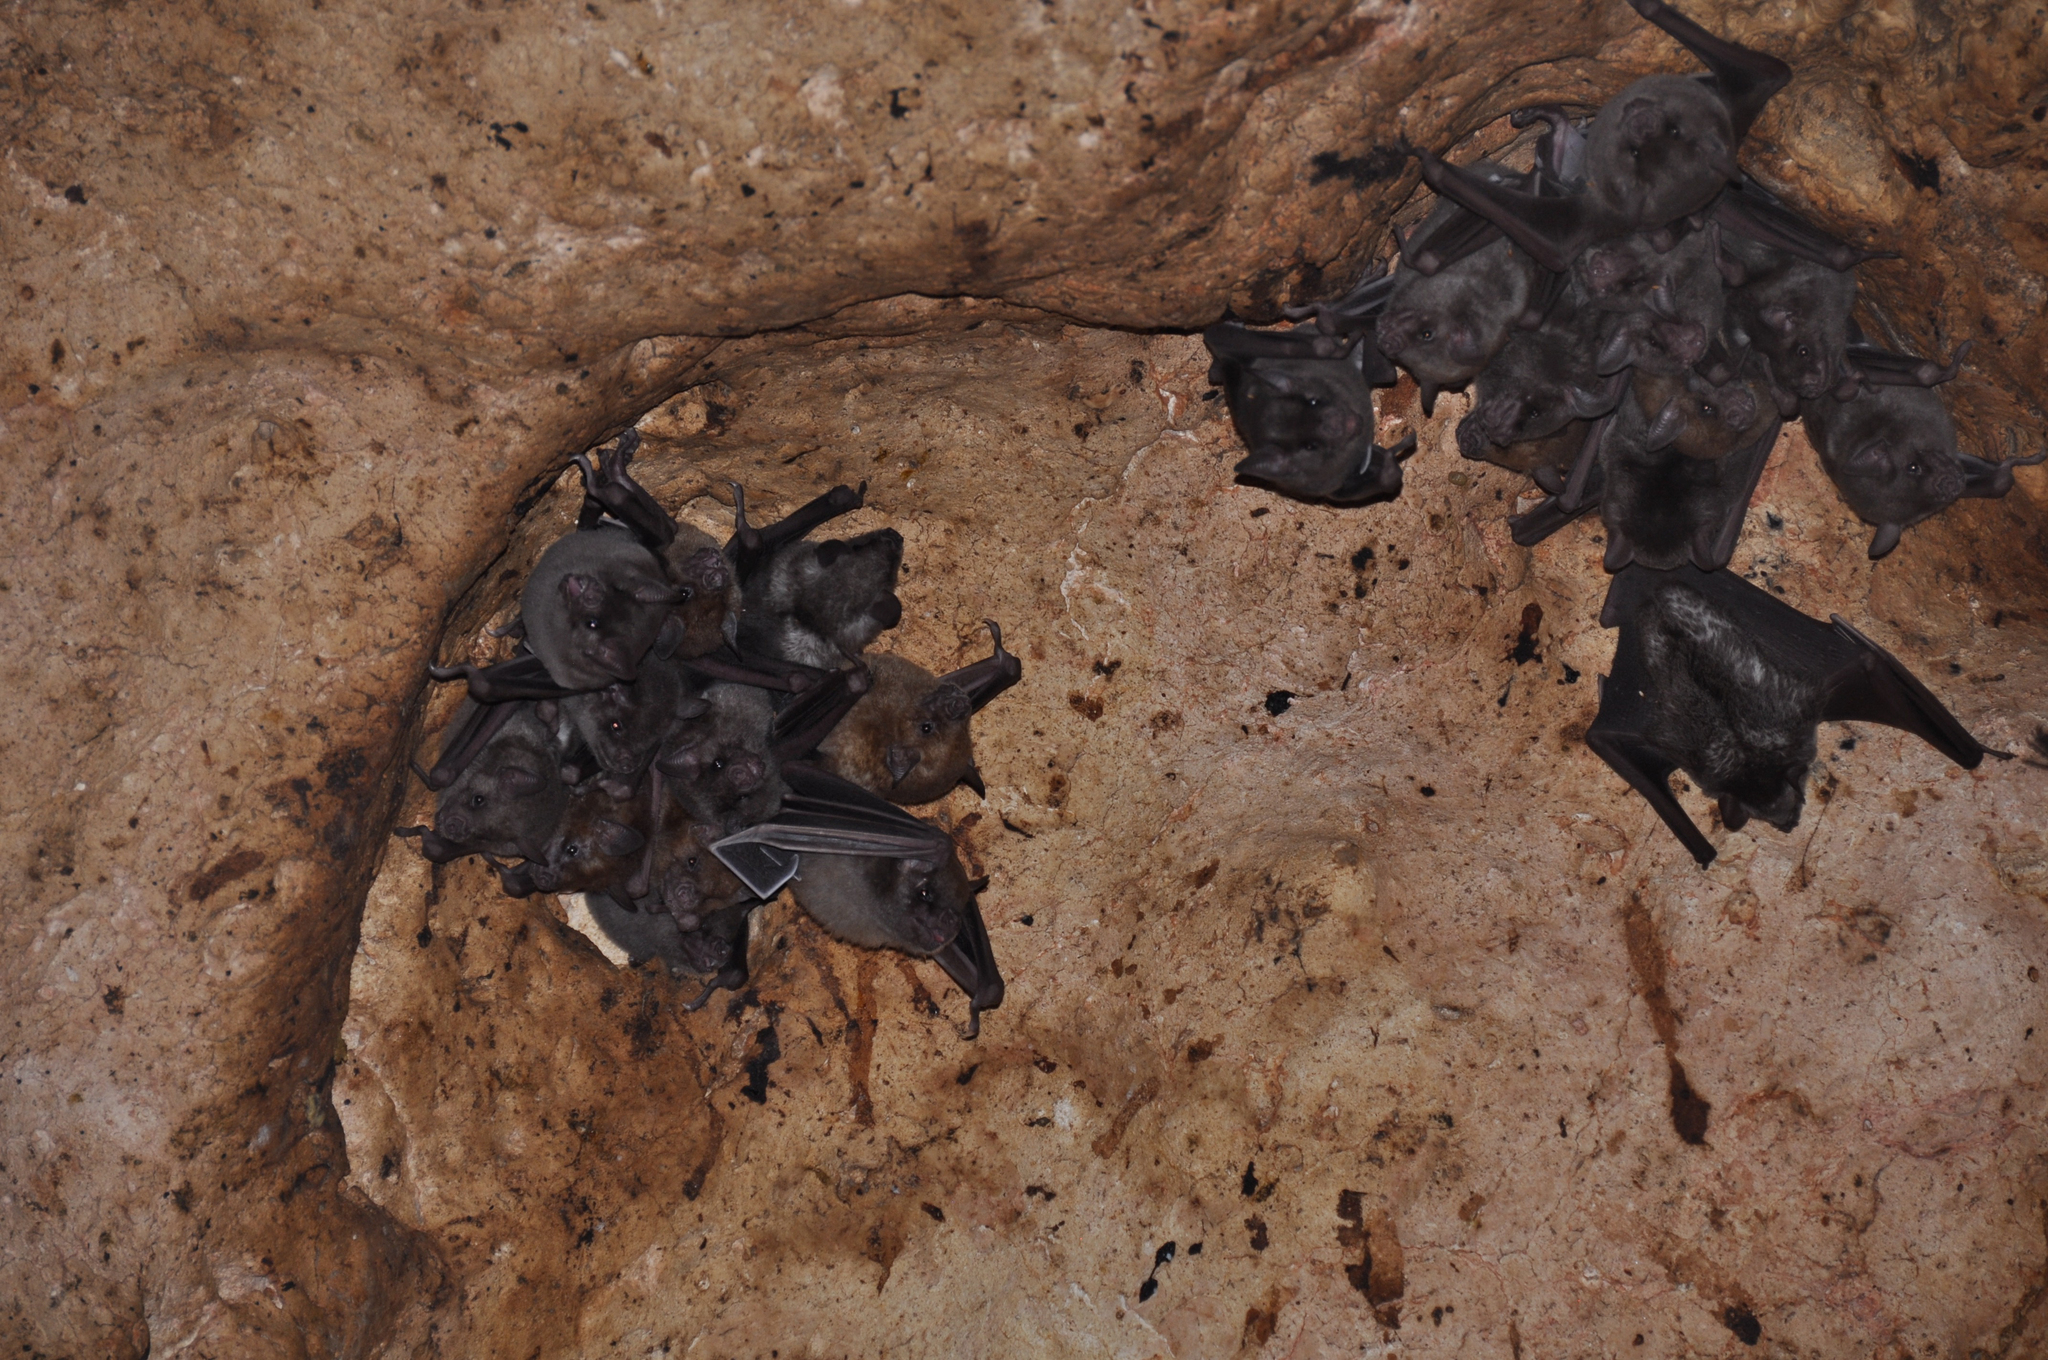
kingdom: Animalia
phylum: Chordata
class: Mammalia
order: Chiroptera
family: Phyllostomidae
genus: Brachyphylla
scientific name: Brachyphylla cavernarum
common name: Antillean fruit-eating bat
